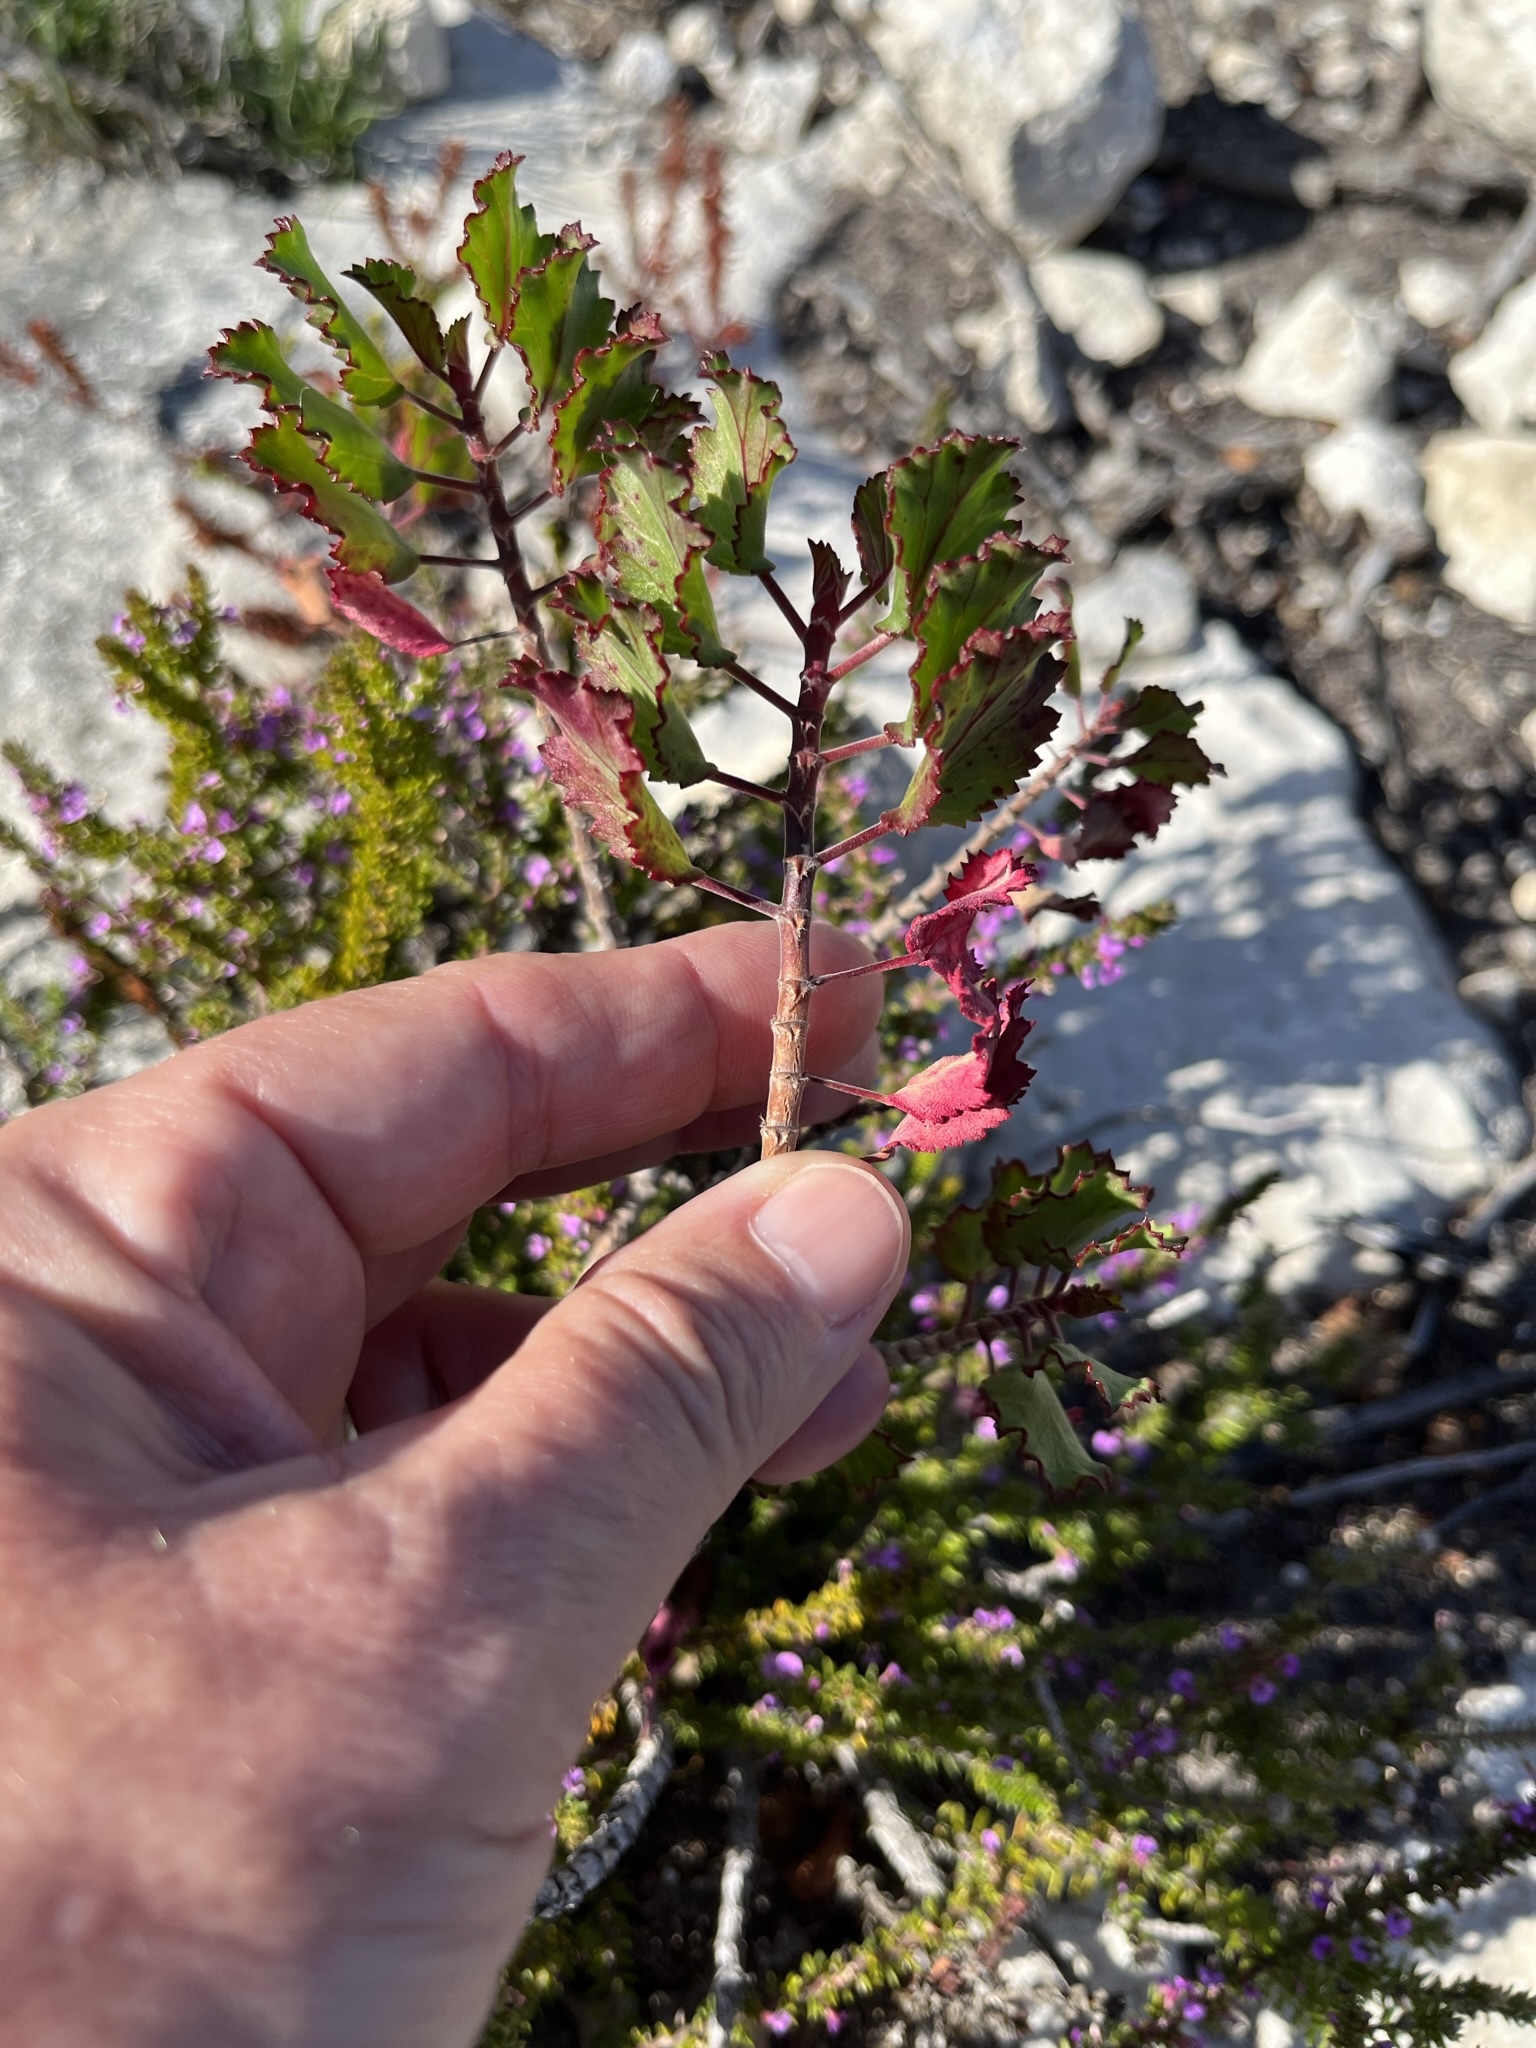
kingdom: Plantae
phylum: Tracheophyta
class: Magnoliopsida
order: Geraniales
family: Geraniaceae
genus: Pelargonium
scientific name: Pelargonium betulinum
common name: Birch-leaf pelargonium
